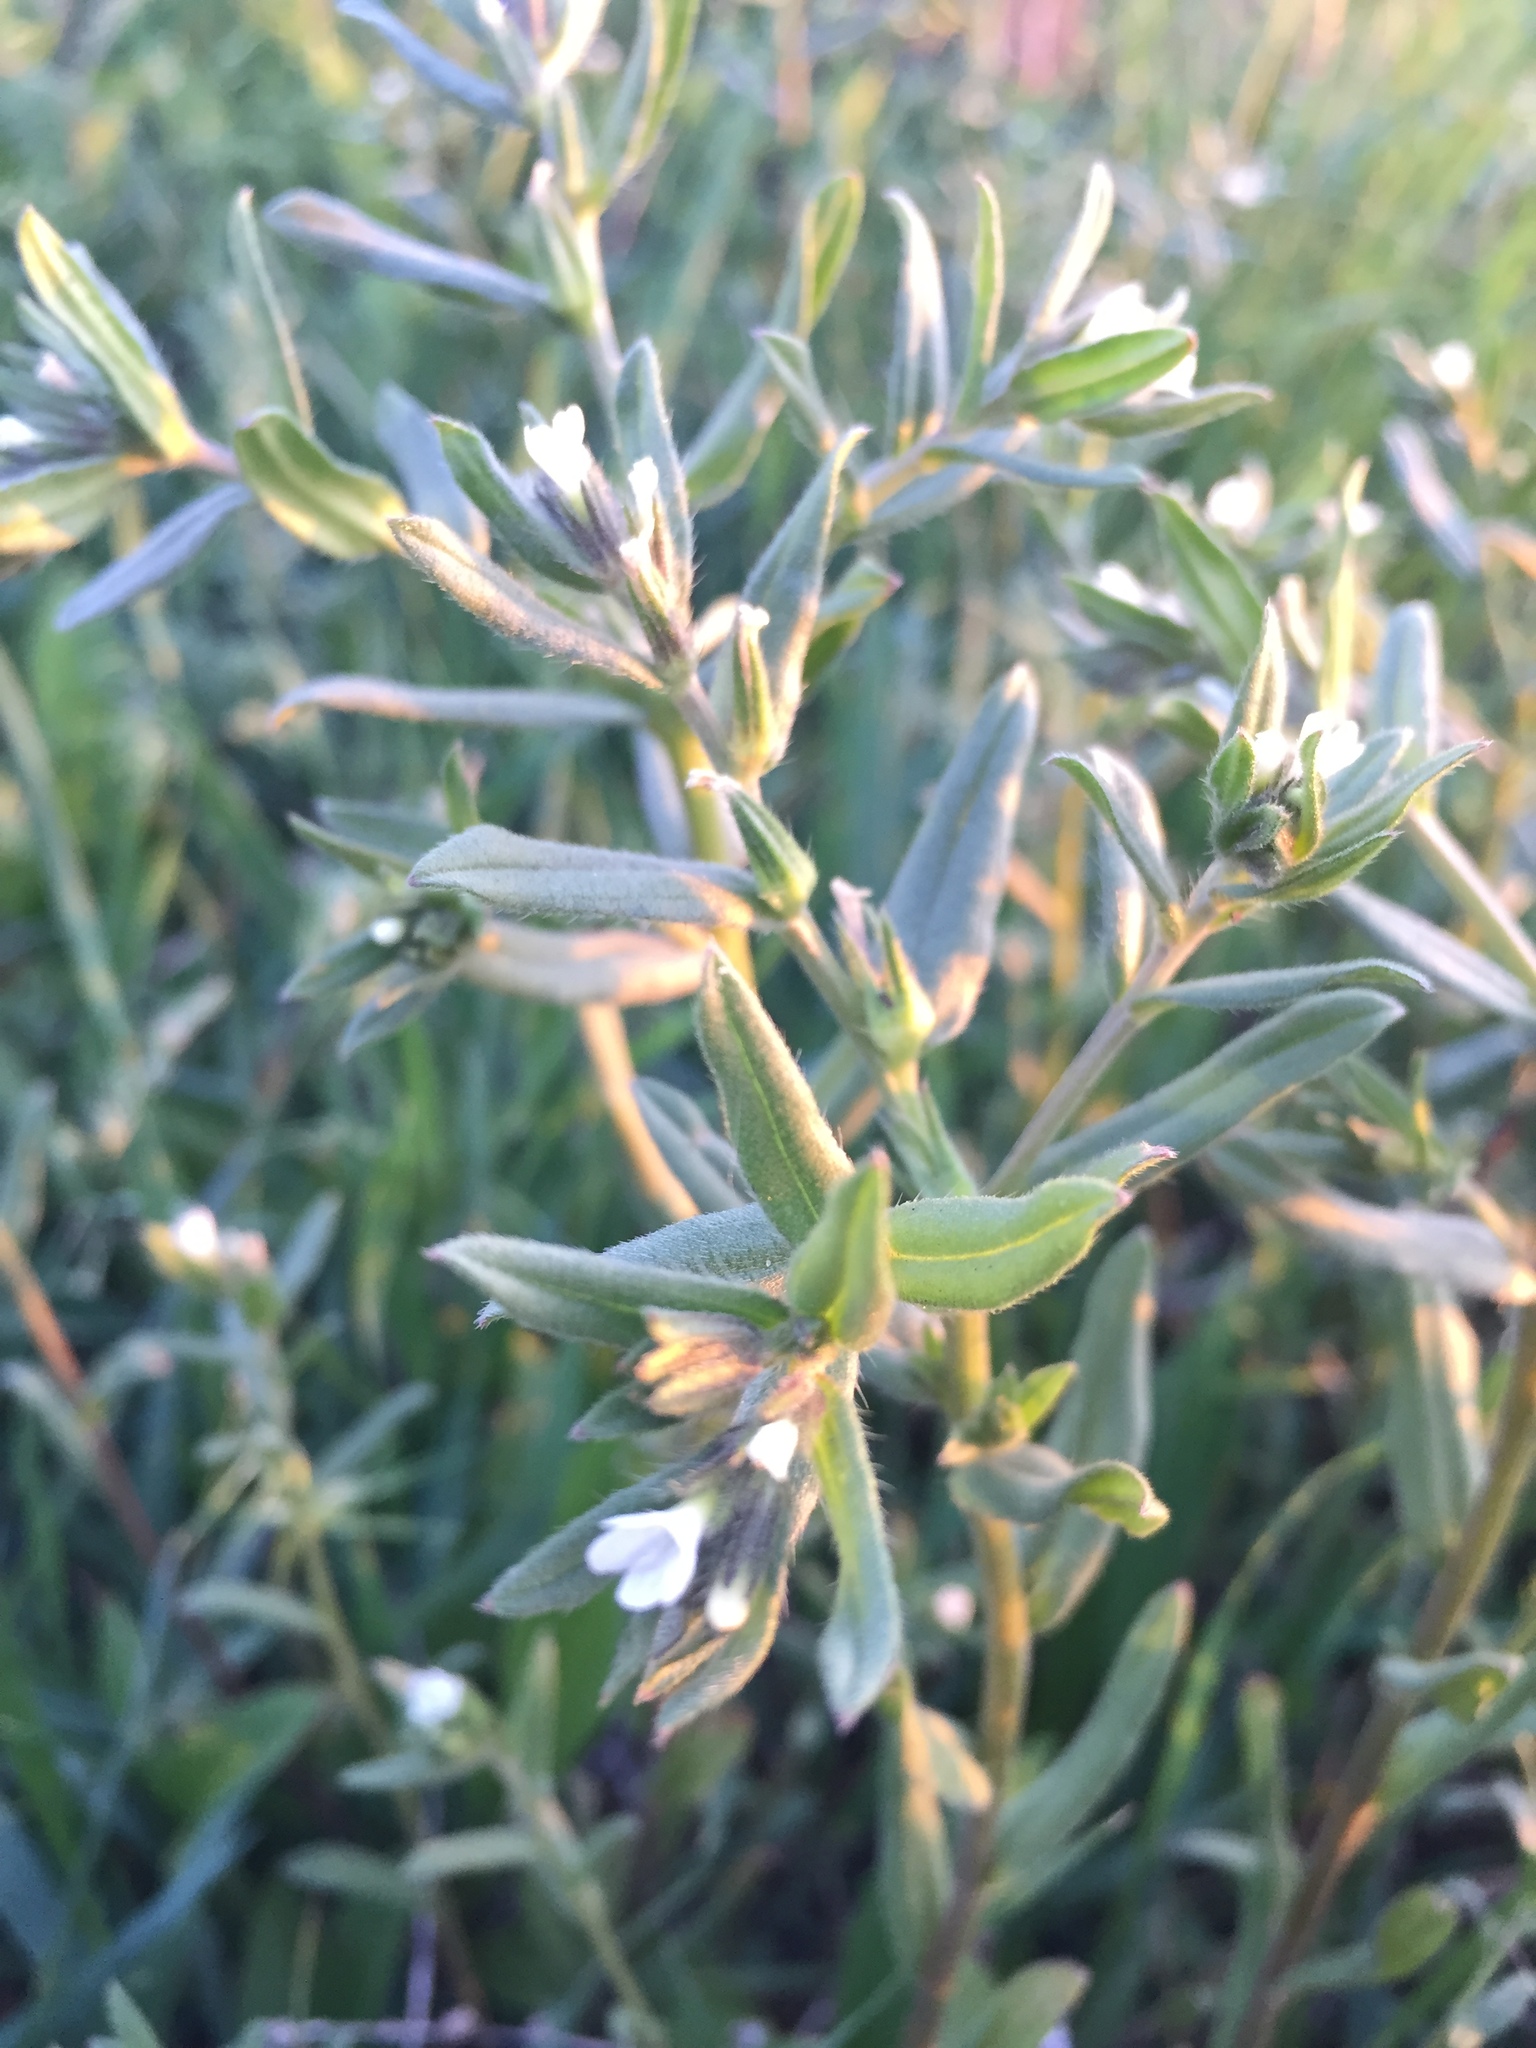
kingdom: Plantae
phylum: Tracheophyta
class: Magnoliopsida
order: Boraginales
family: Boraginaceae
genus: Buglossoides
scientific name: Buglossoides arvensis
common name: Corn gromwell
